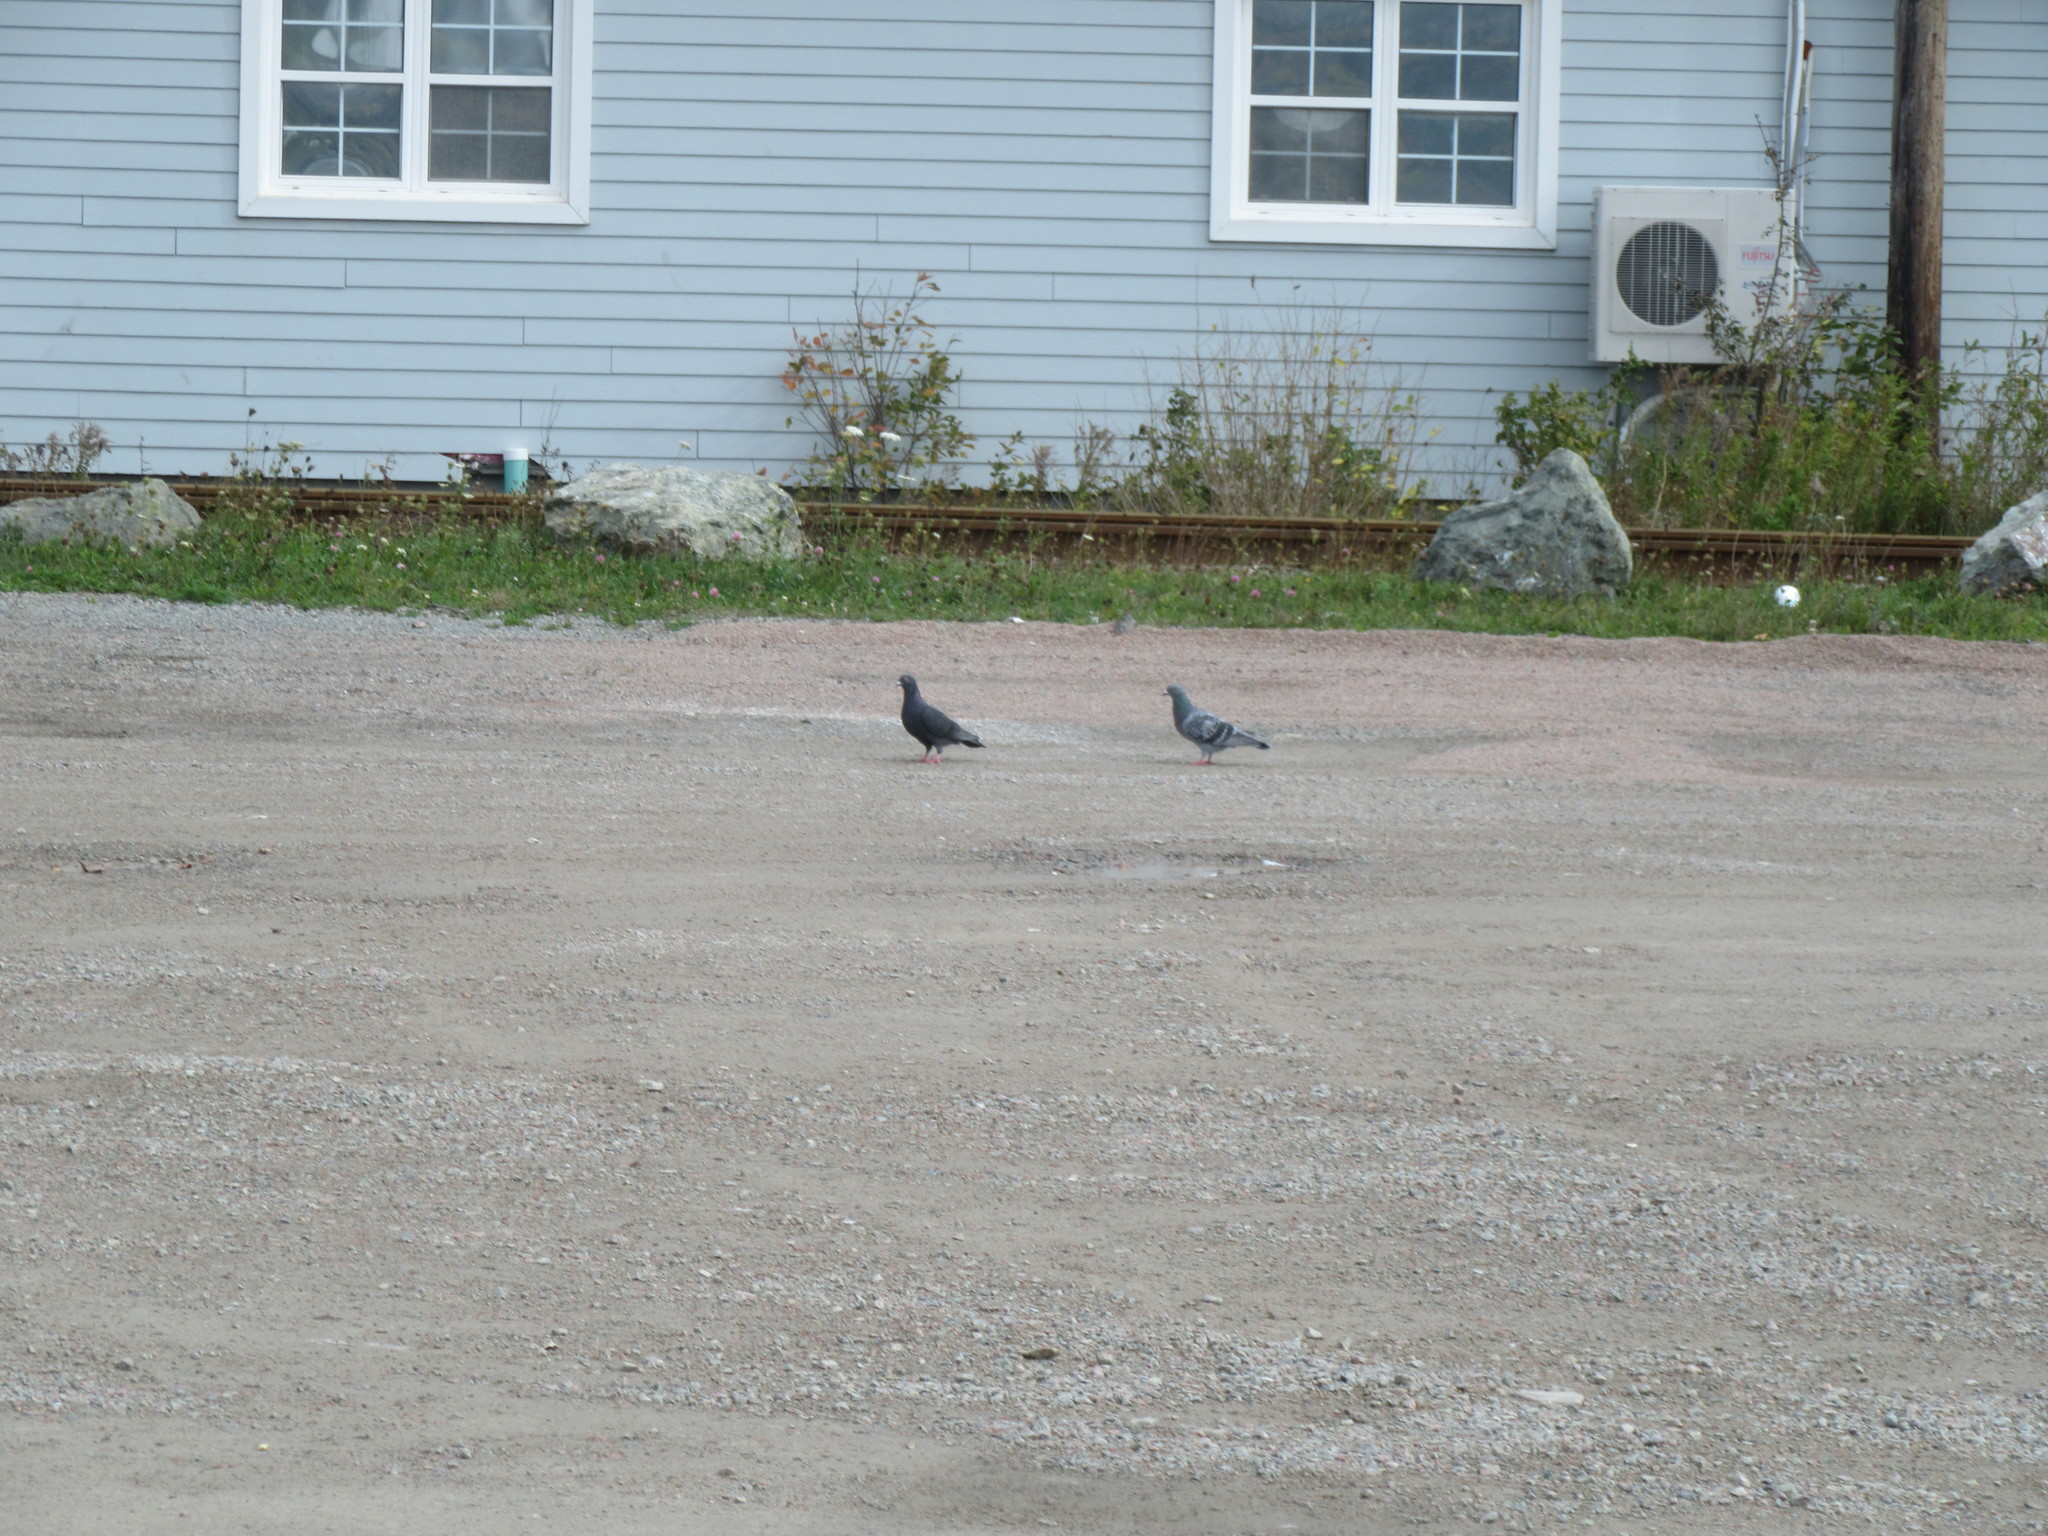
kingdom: Animalia
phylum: Chordata
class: Aves
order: Columbiformes
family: Columbidae
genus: Columba
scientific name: Columba livia
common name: Rock pigeon
